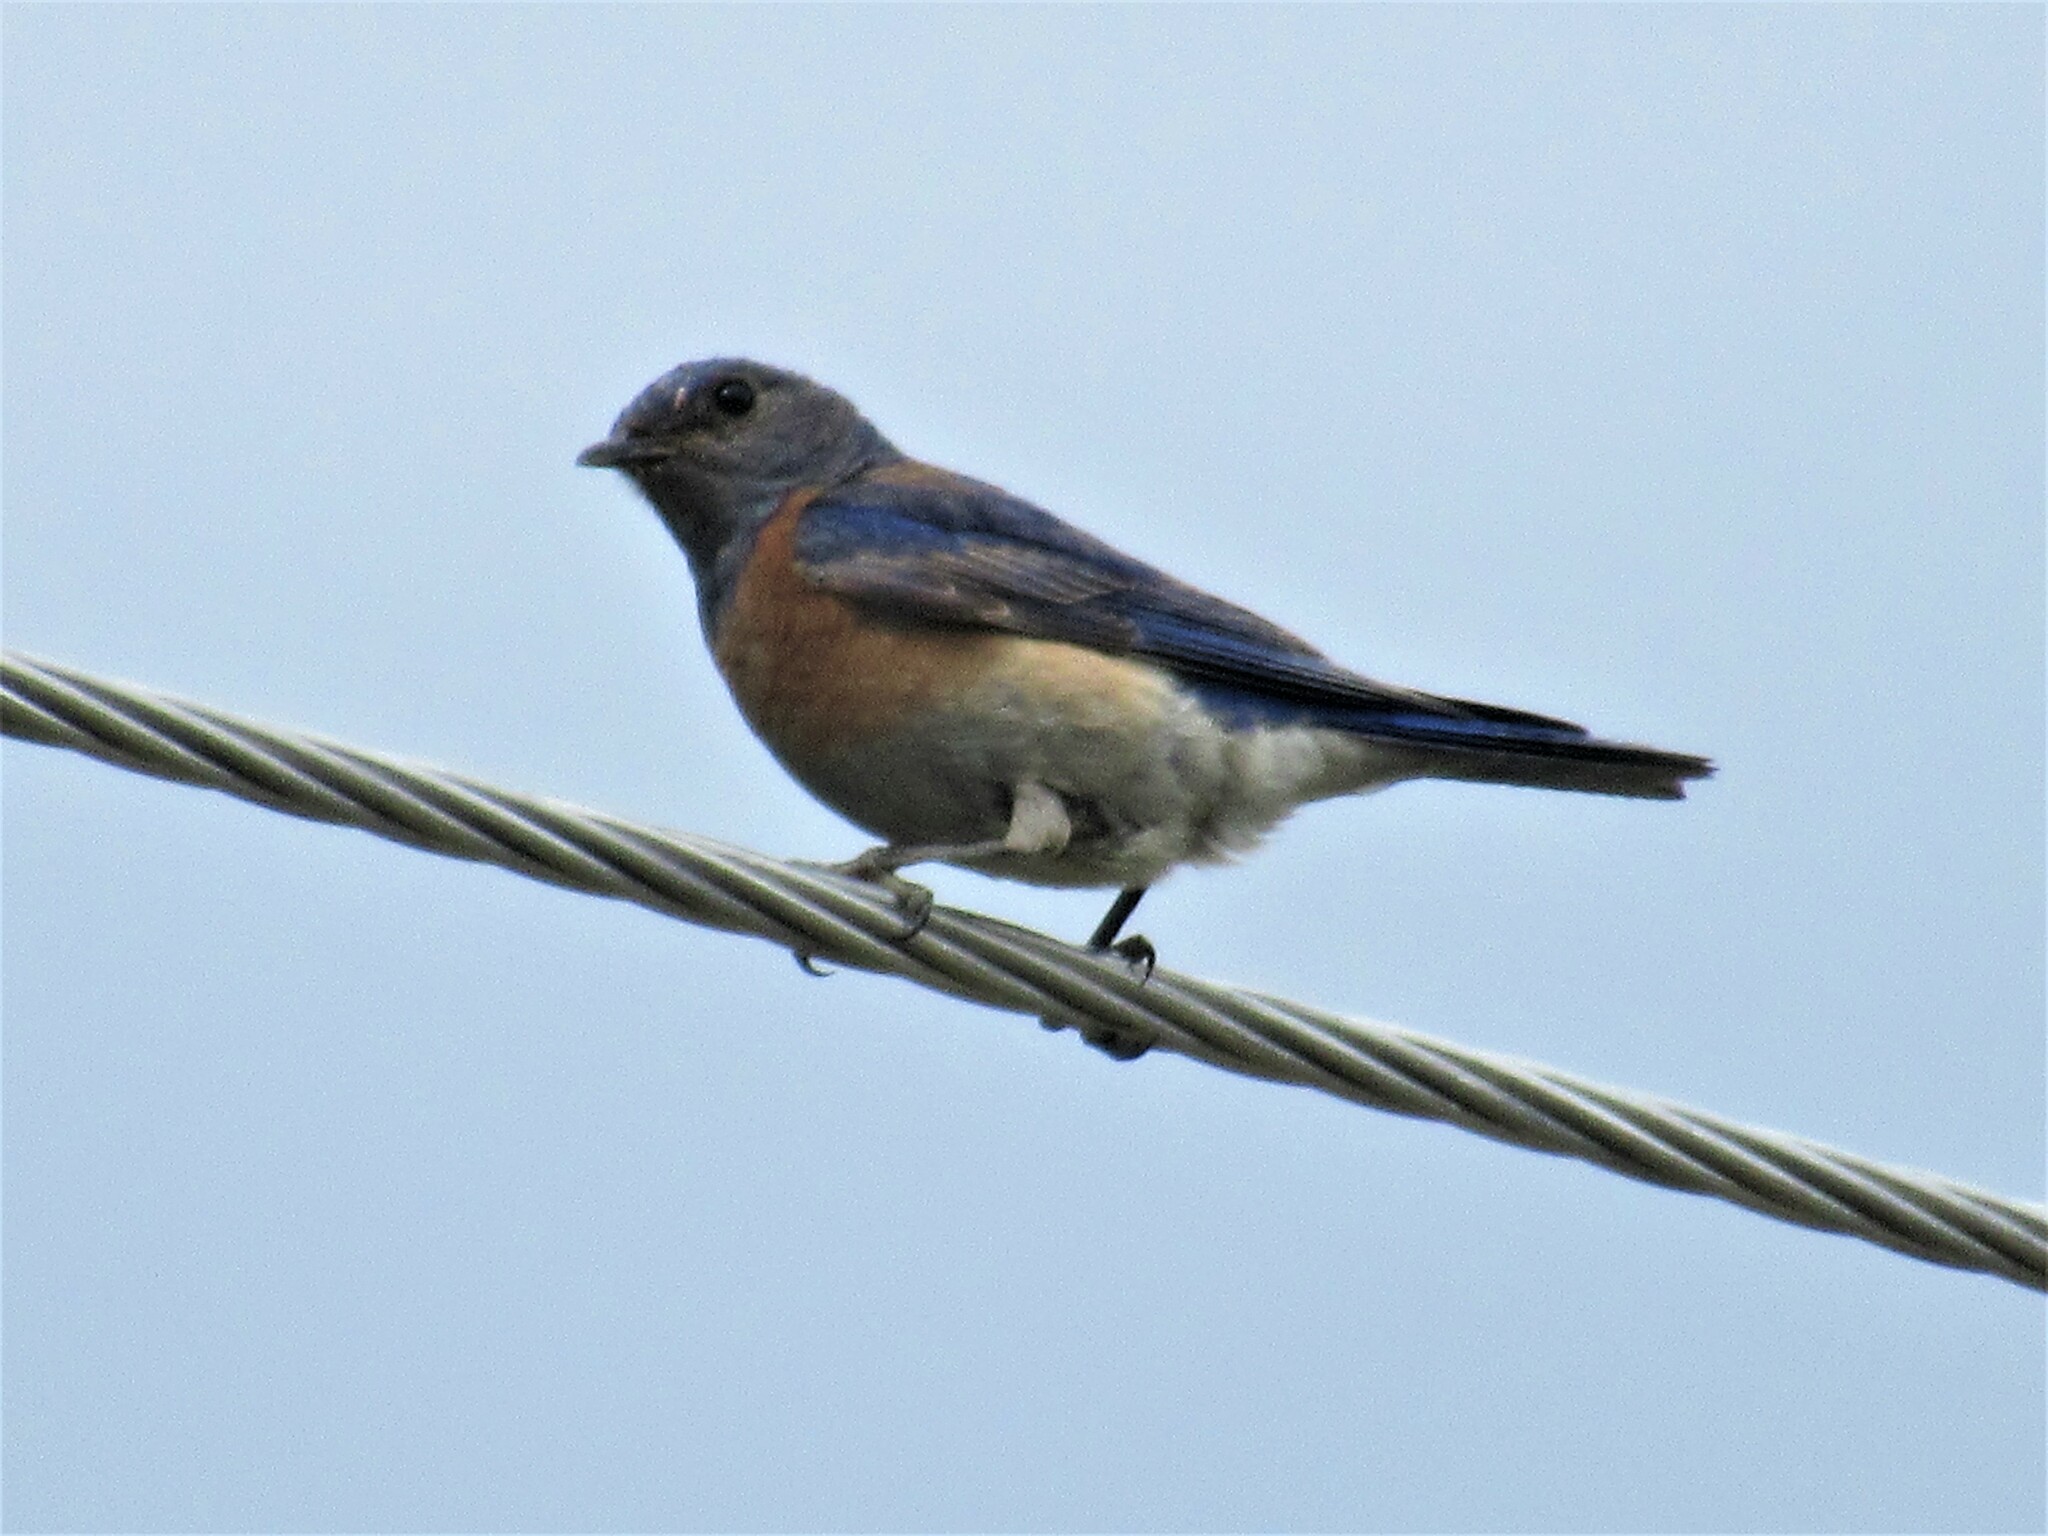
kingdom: Animalia
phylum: Chordata
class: Aves
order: Passeriformes
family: Turdidae
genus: Sialia
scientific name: Sialia mexicana
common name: Western bluebird
